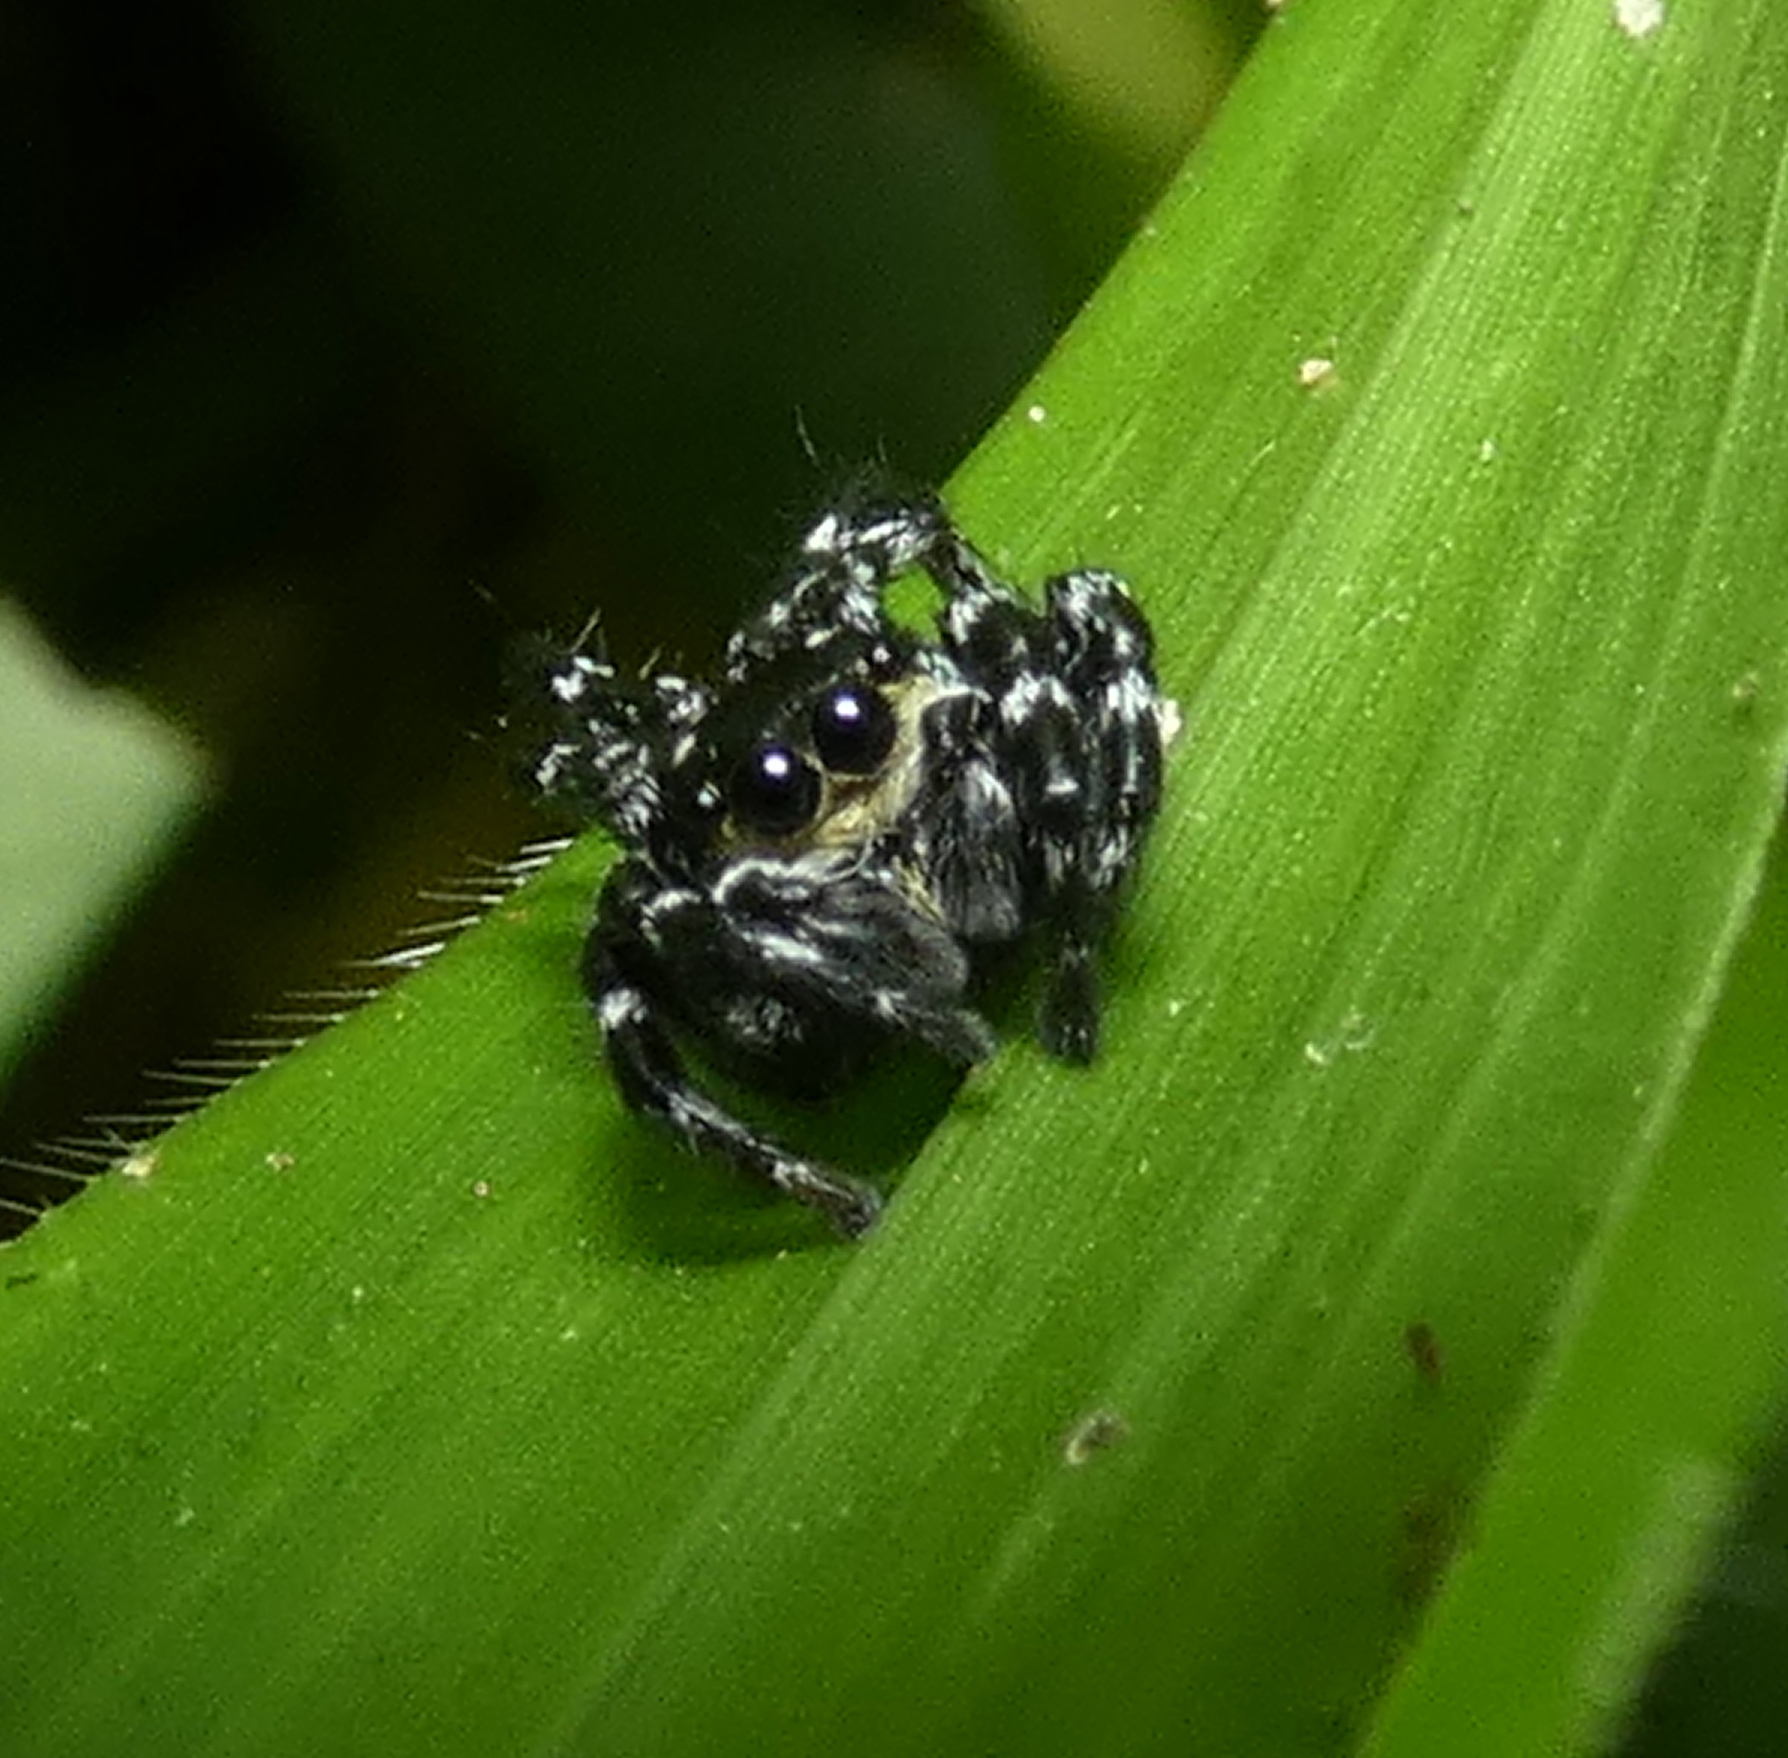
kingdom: Animalia
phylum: Arthropoda
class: Arachnida
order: Araneae
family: Salticidae
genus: Phiale
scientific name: Phiale tristis
